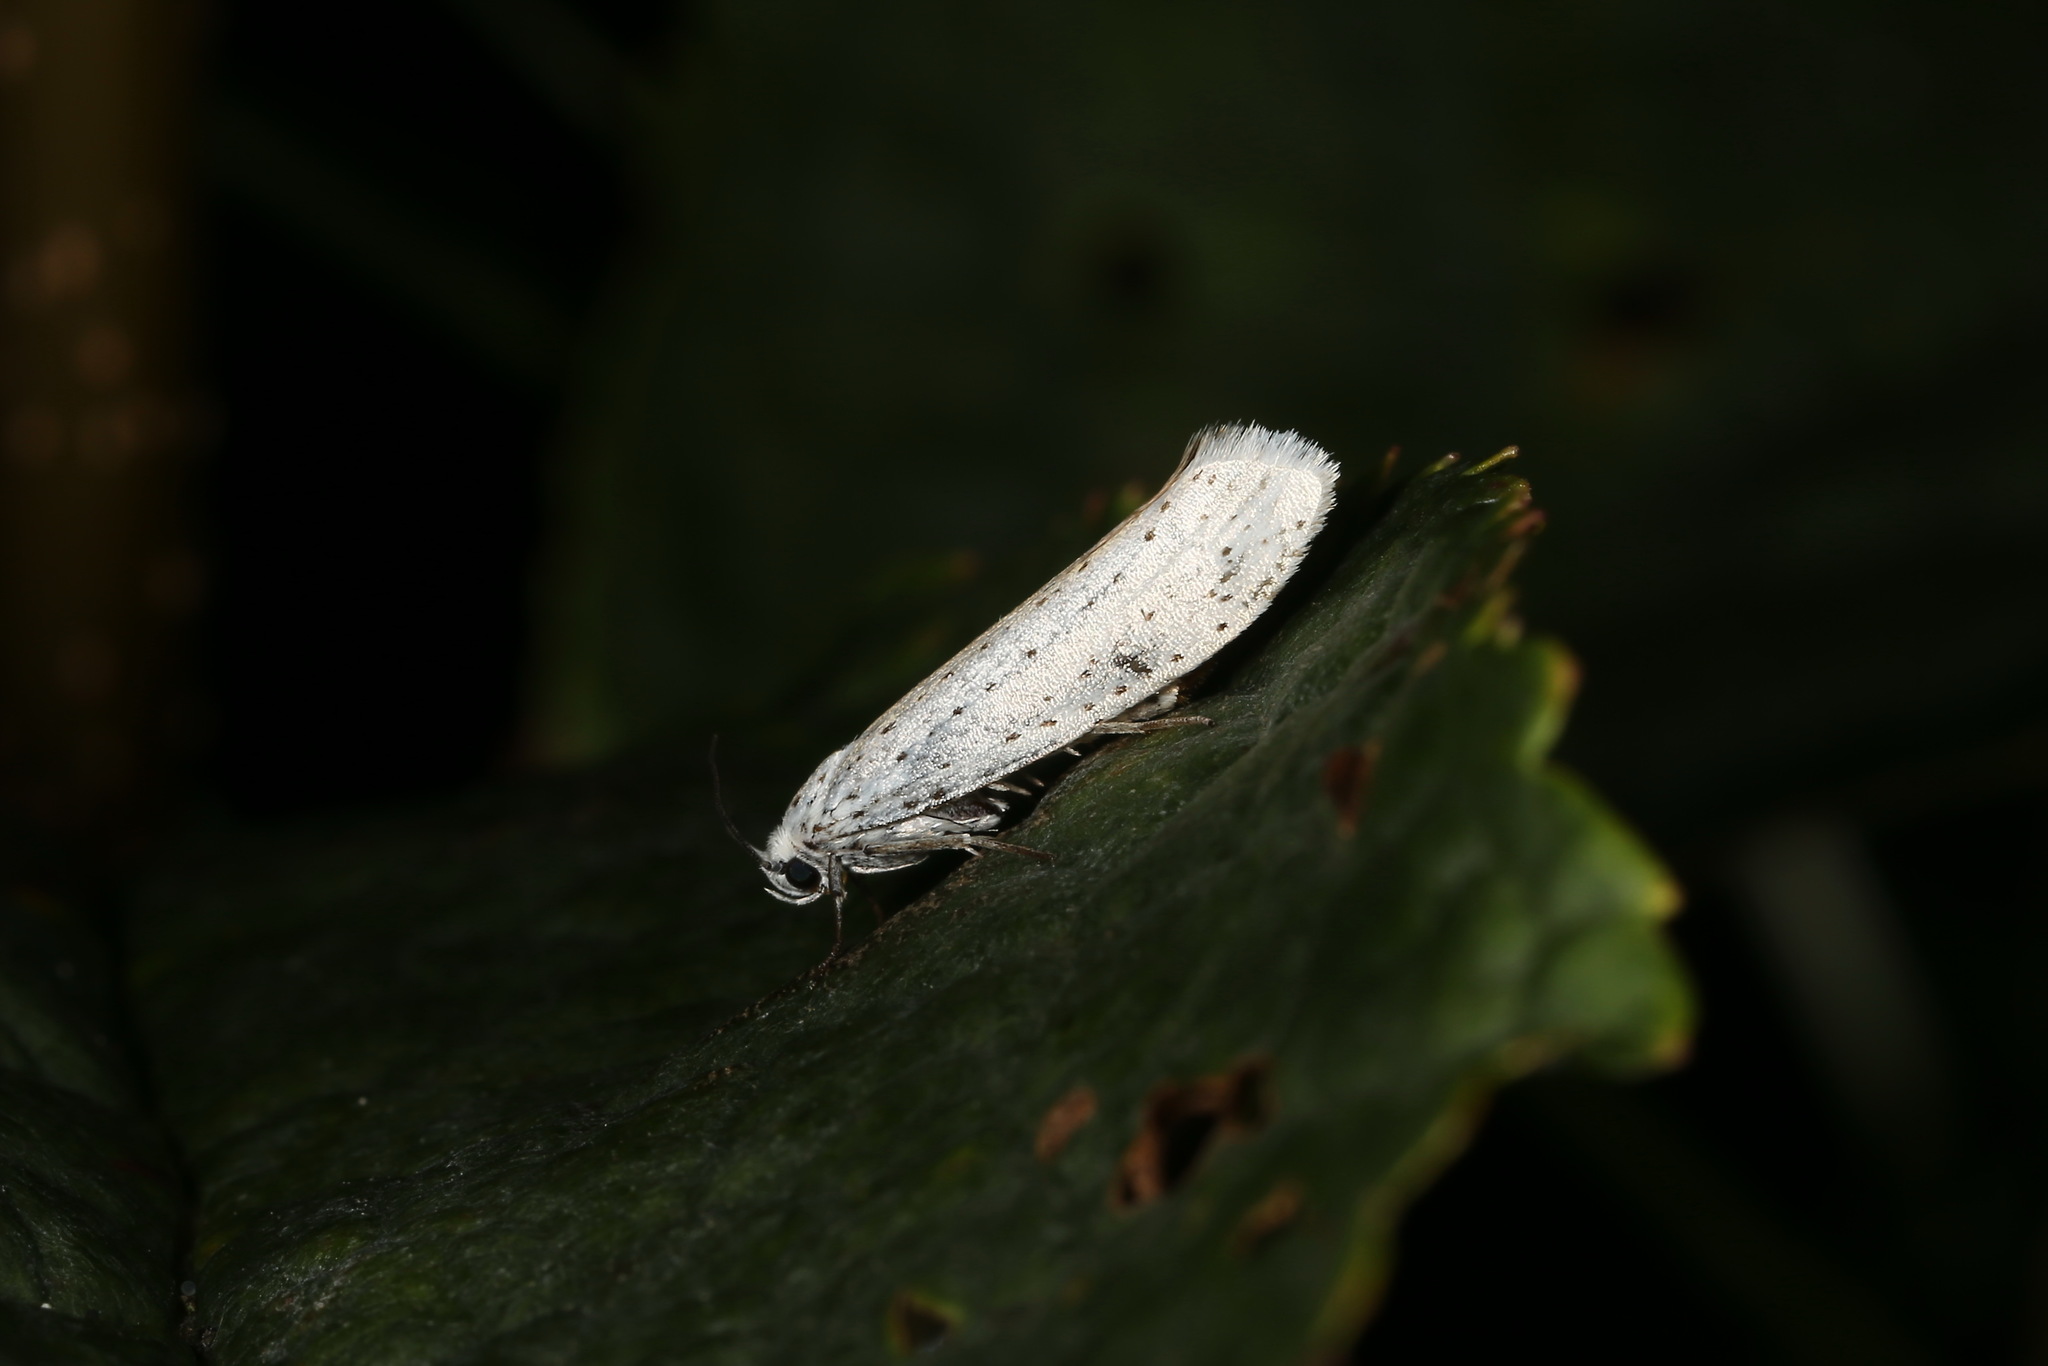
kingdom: Animalia
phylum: Arthropoda
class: Insecta
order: Lepidoptera
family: Yponomeutidae
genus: Yponomeuta
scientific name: Yponomeuta evonymella
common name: Bird-cherry ermine
